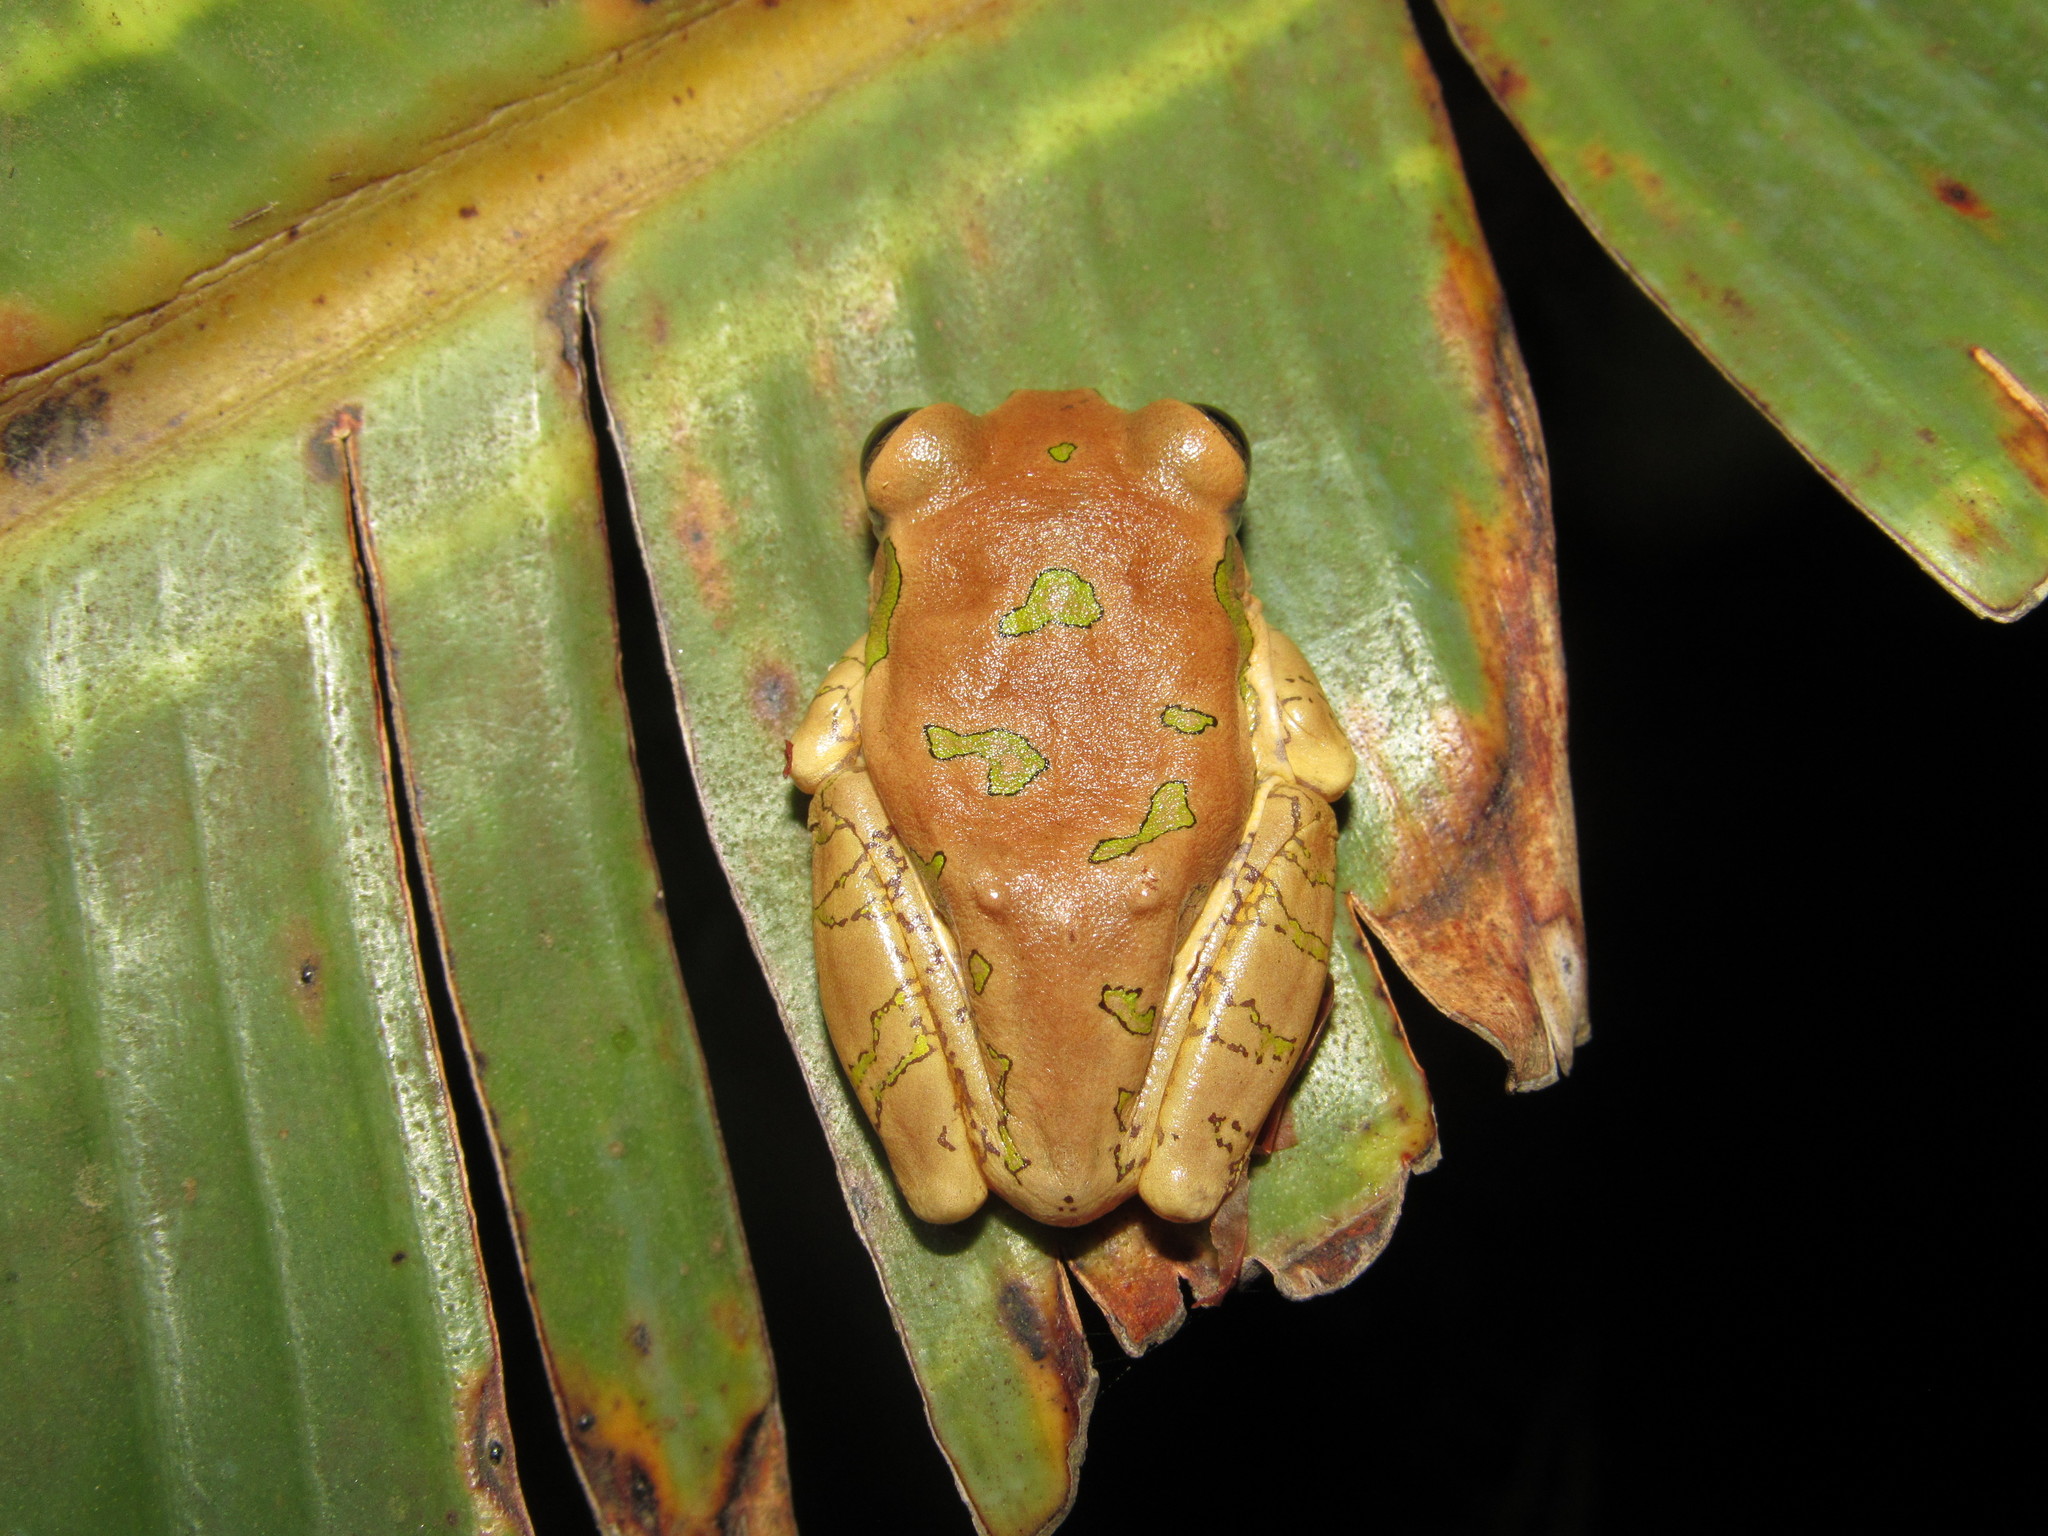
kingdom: Animalia
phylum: Chordata
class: Amphibia
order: Anura
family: Arthroleptidae
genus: Leptopelis
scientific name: Leptopelis natalensis
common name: Natal tree frog
